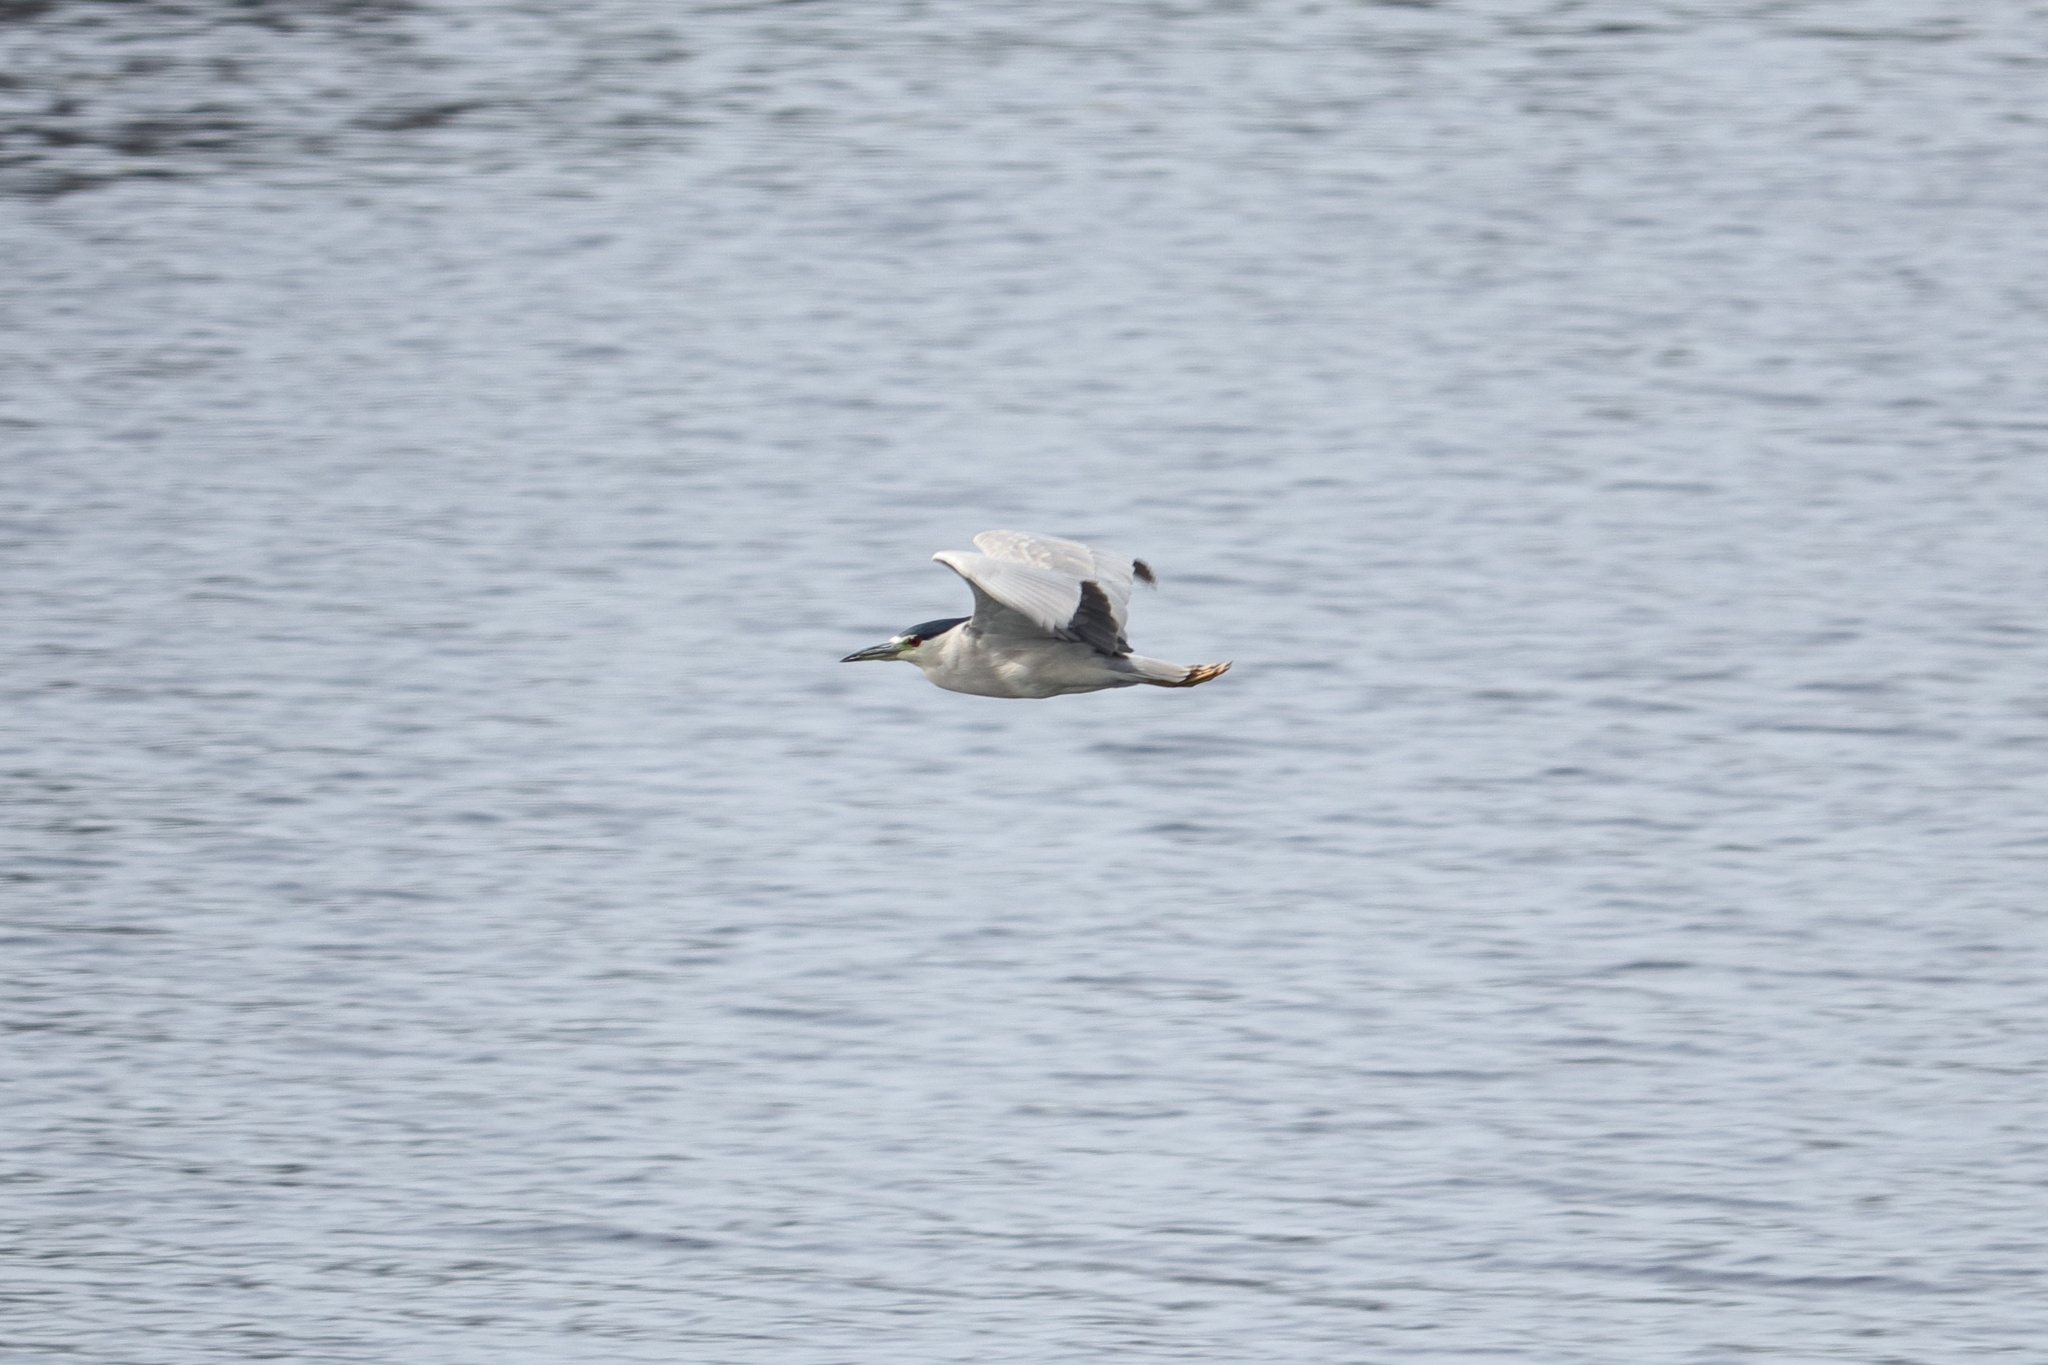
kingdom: Animalia
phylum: Chordata
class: Aves
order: Pelecaniformes
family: Ardeidae
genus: Nycticorax
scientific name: Nycticorax nycticorax
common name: Black-crowned night heron
